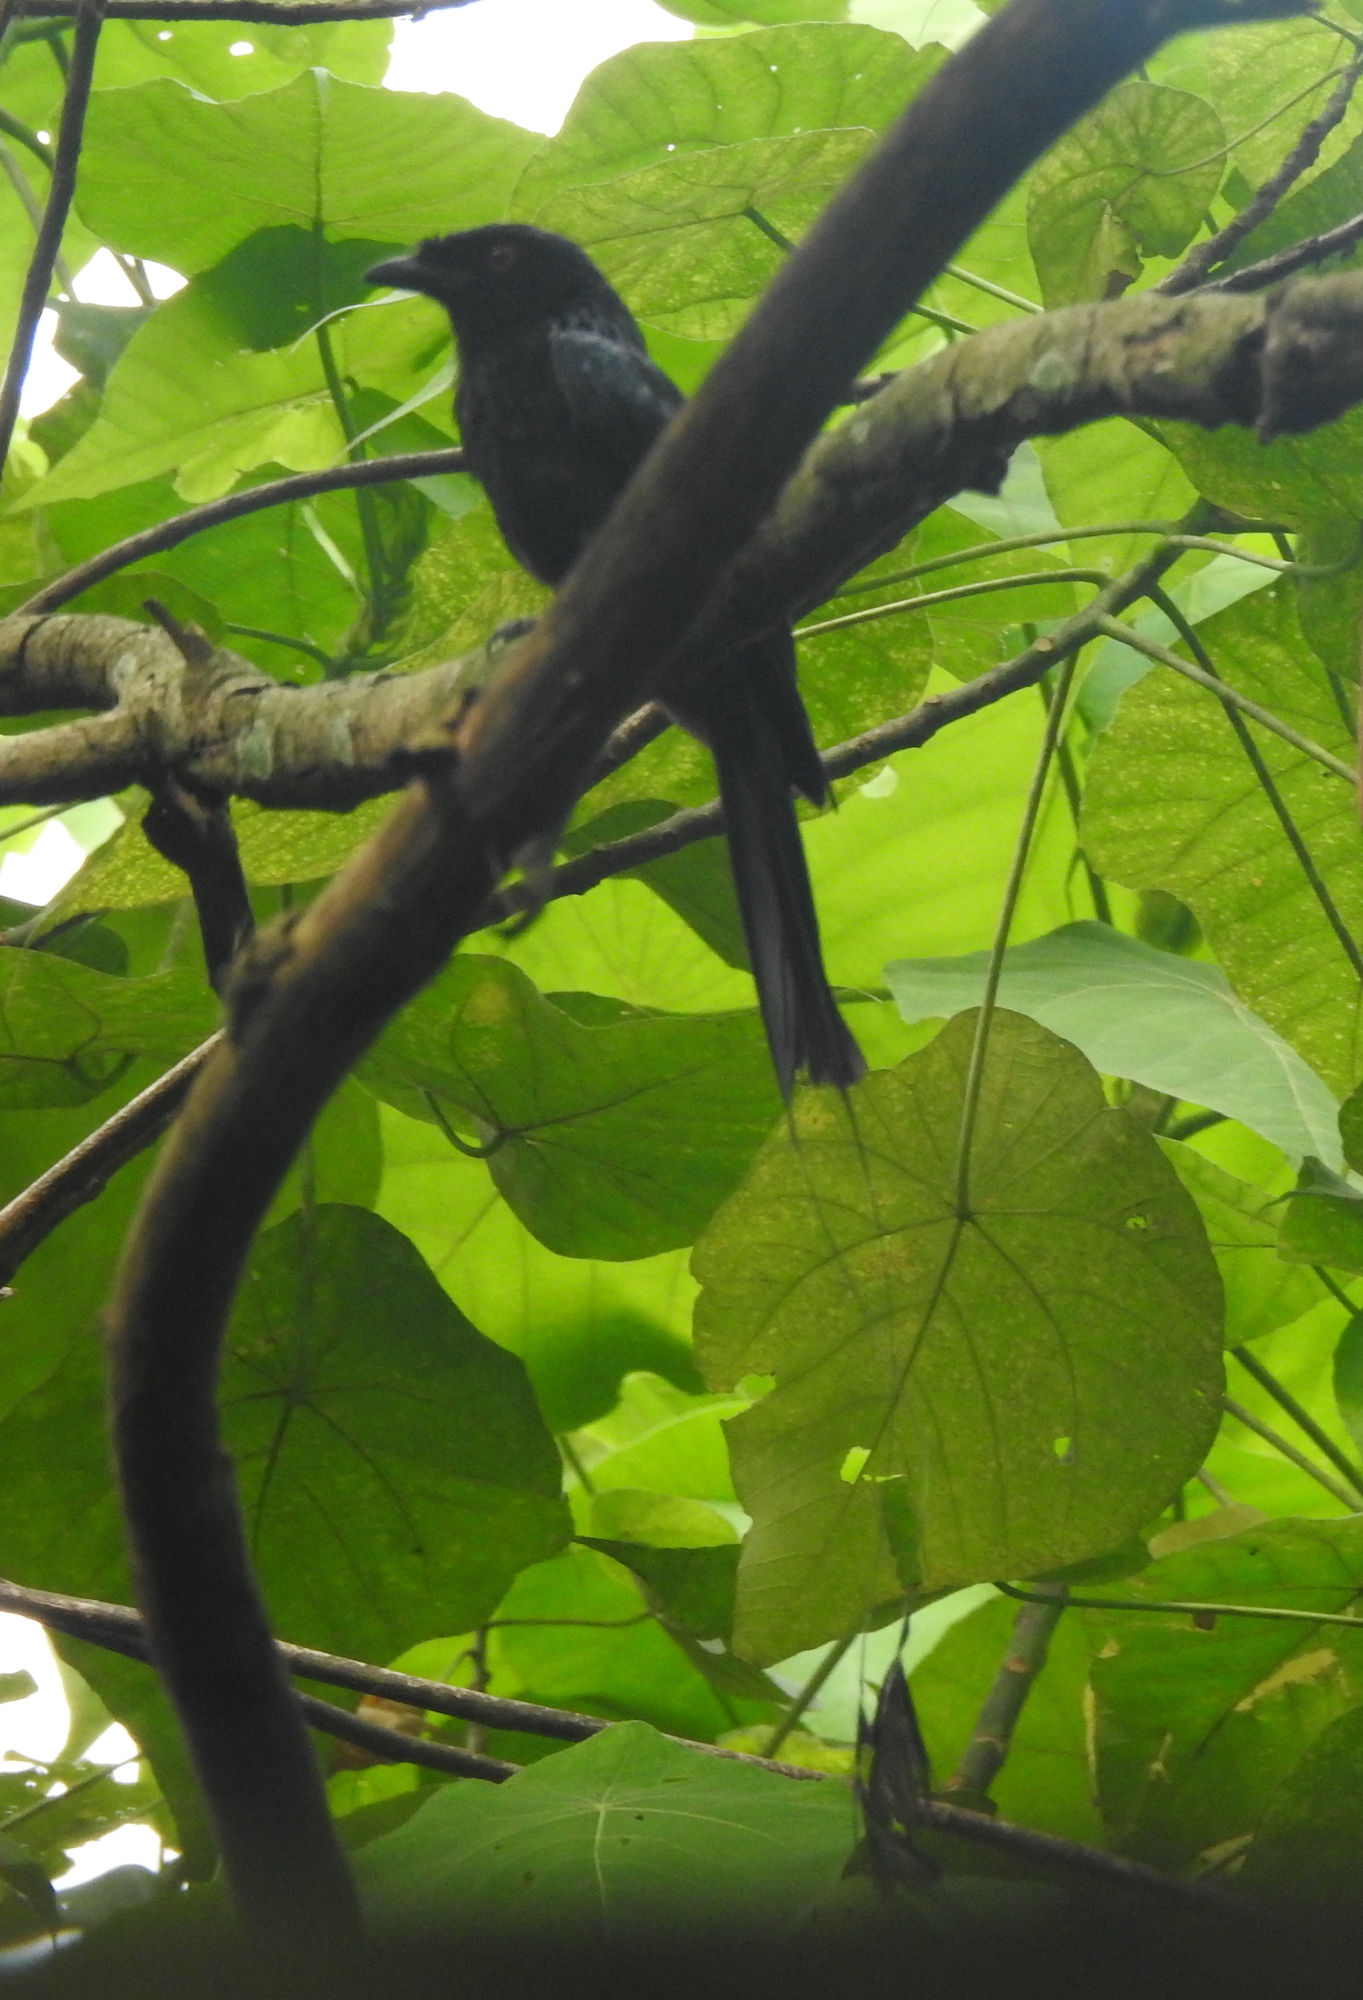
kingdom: Animalia
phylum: Chordata
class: Aves
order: Passeriformes
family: Dicruridae
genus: Dicrurus
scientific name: Dicrurus paradiseus
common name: Greater racket-tailed drongo
